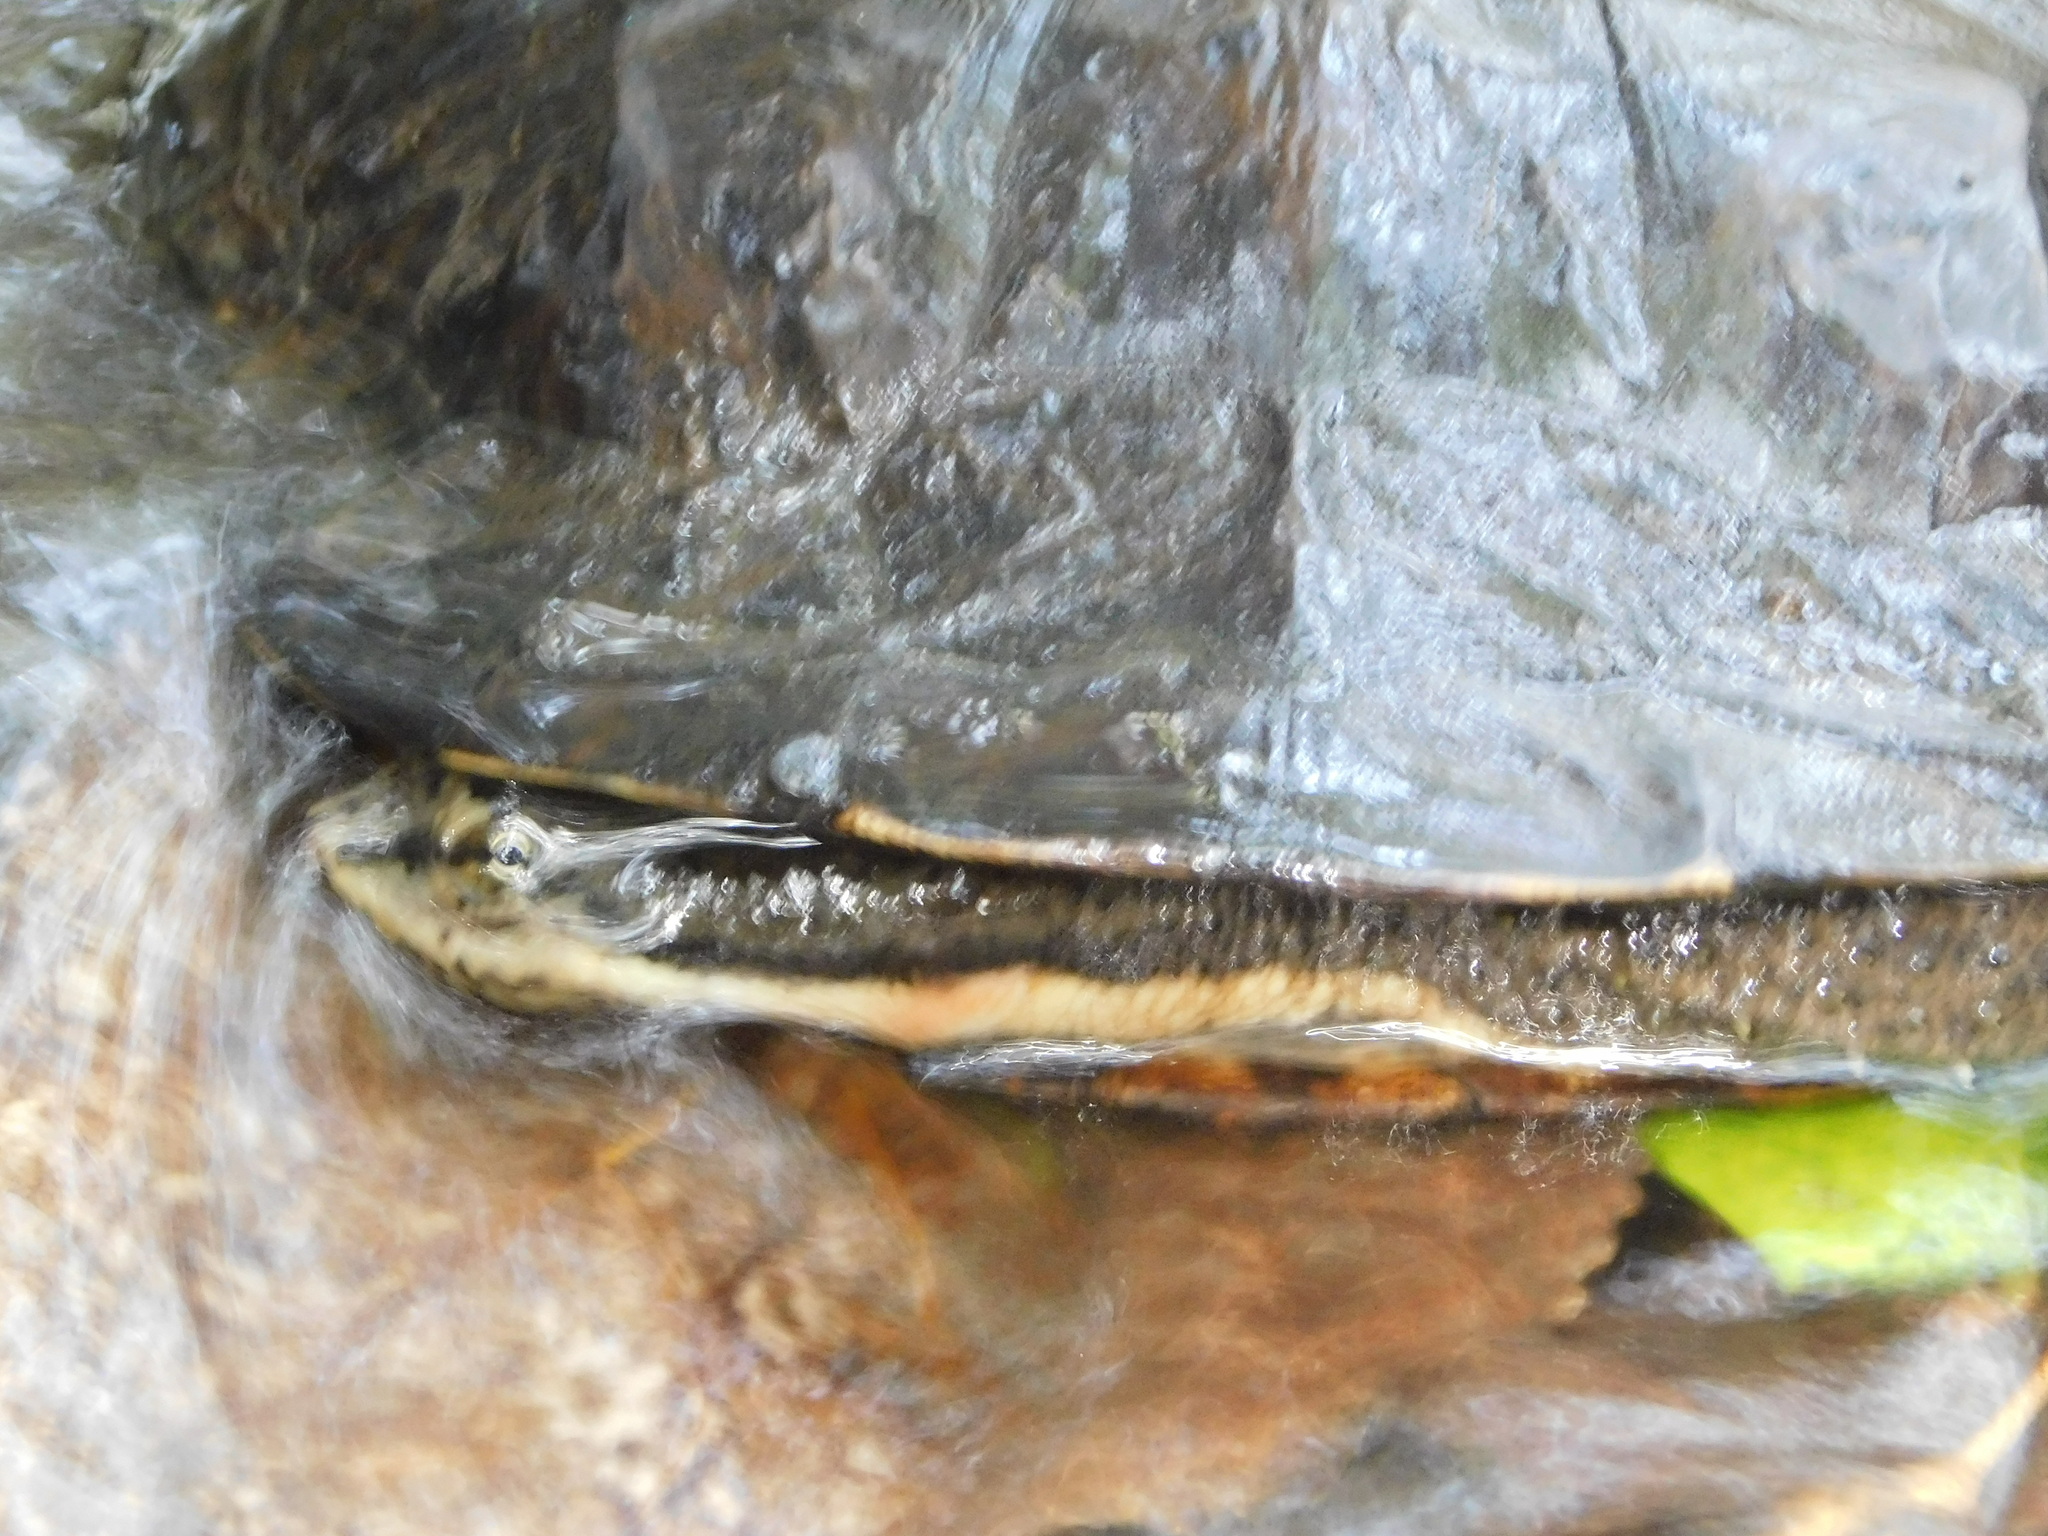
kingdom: Animalia
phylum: Chordata
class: Testudines
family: Chelidae
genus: Hydromedusa
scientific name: Hydromedusa tectifera
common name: Argentine snake-necked turtle
